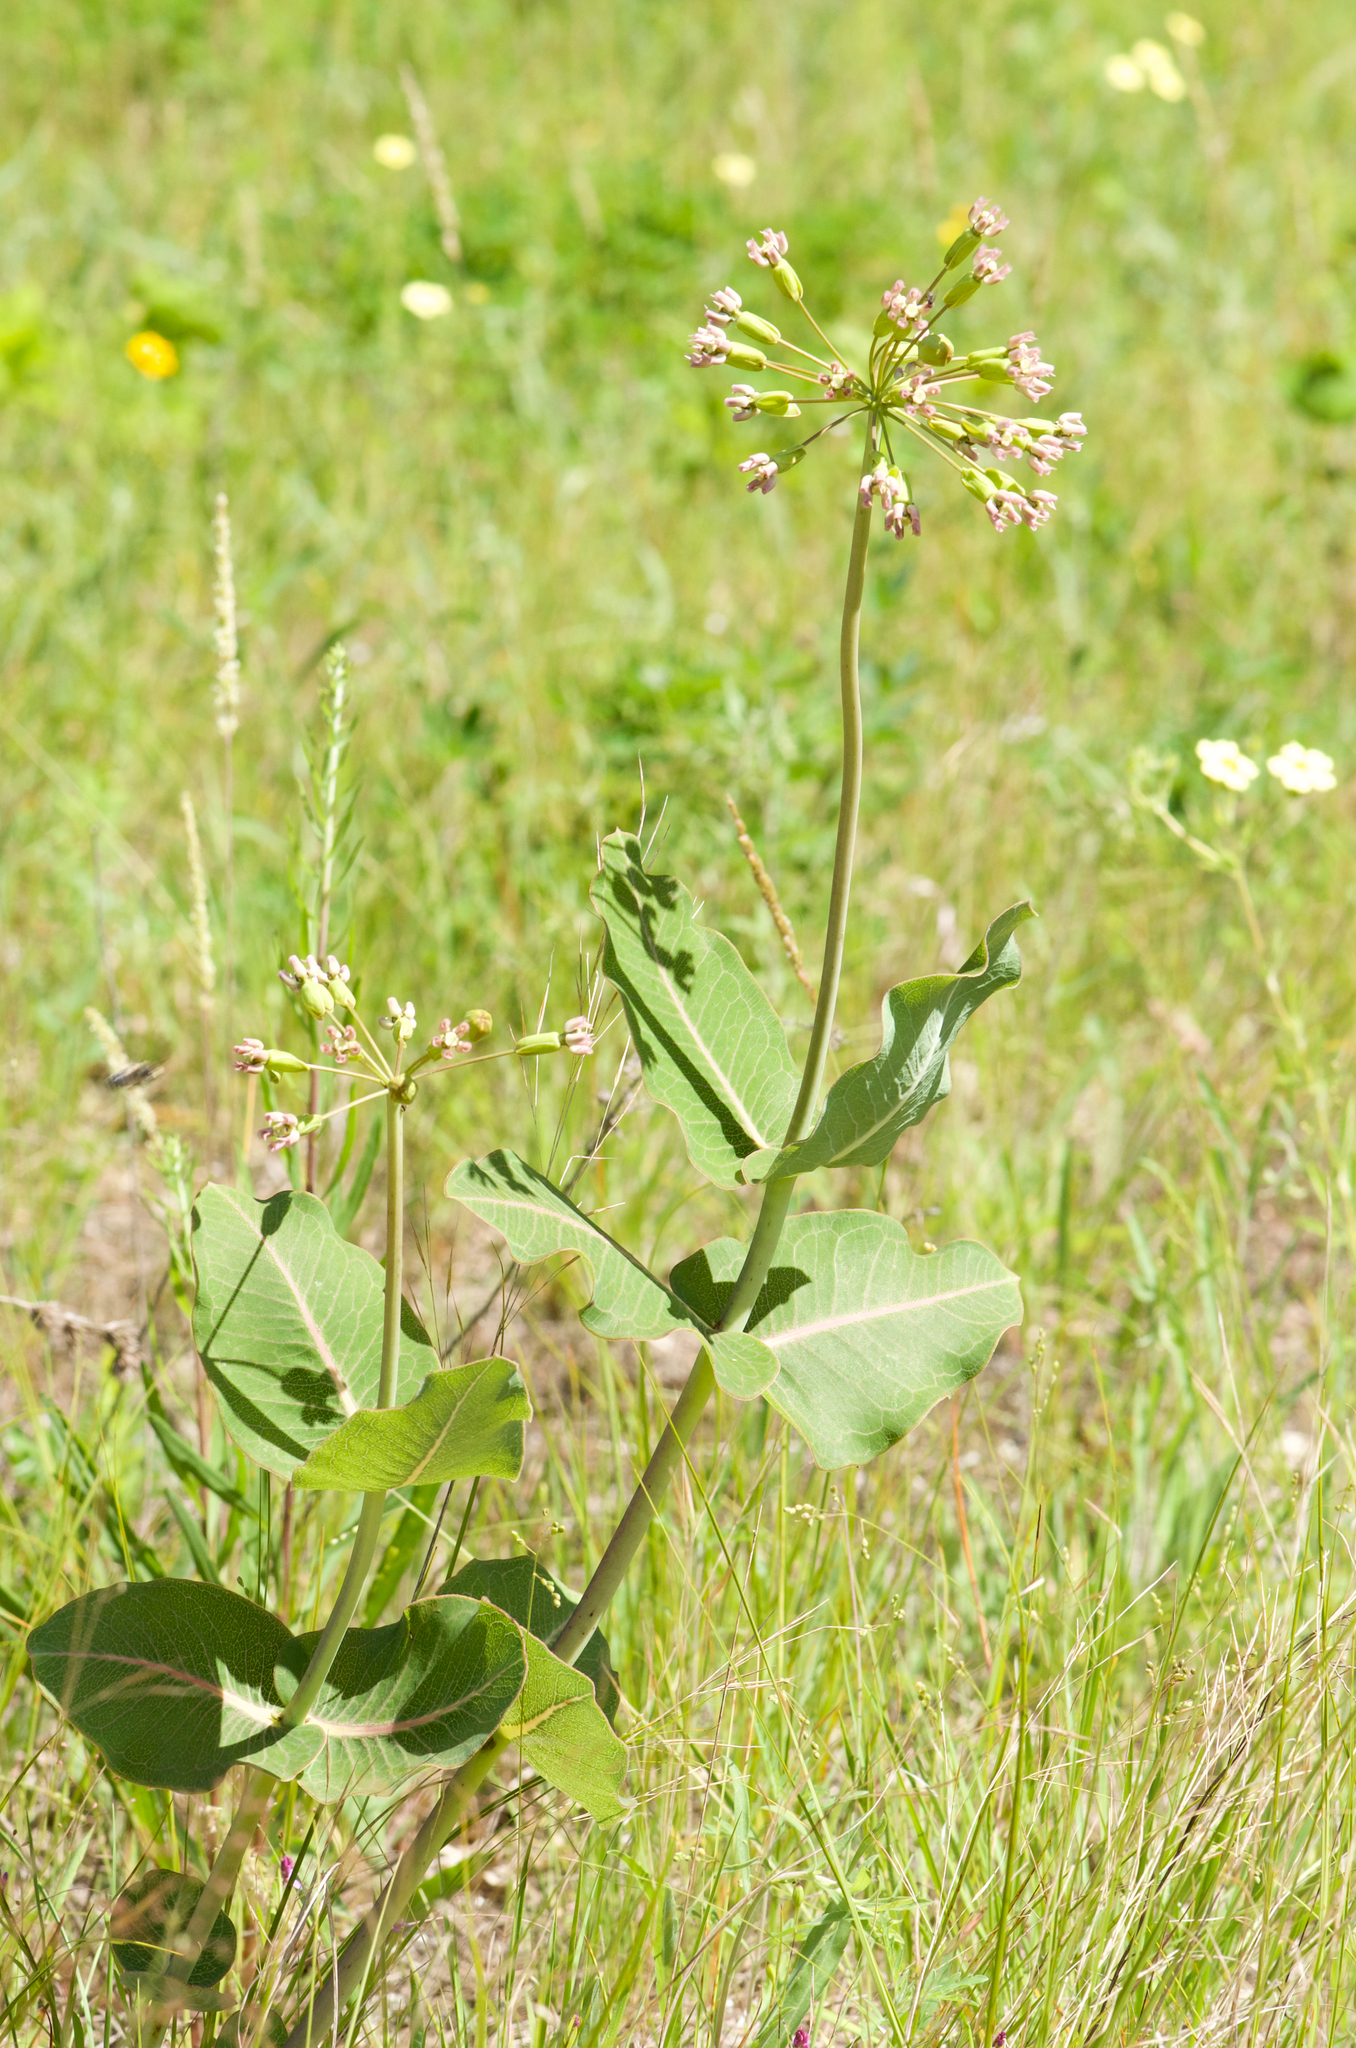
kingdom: Plantae
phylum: Tracheophyta
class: Magnoliopsida
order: Gentianales
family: Apocynaceae
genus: Asclepias
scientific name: Asclepias amplexicaulis
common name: Blunt-leaf milkweed
